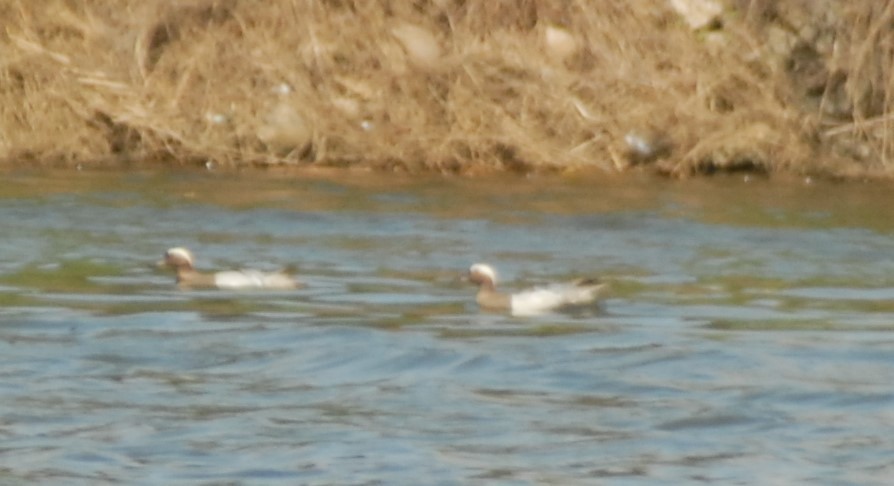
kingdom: Animalia
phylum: Chordata
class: Aves
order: Anseriformes
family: Anatidae
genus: Spatula
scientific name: Spatula querquedula
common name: Garganey
